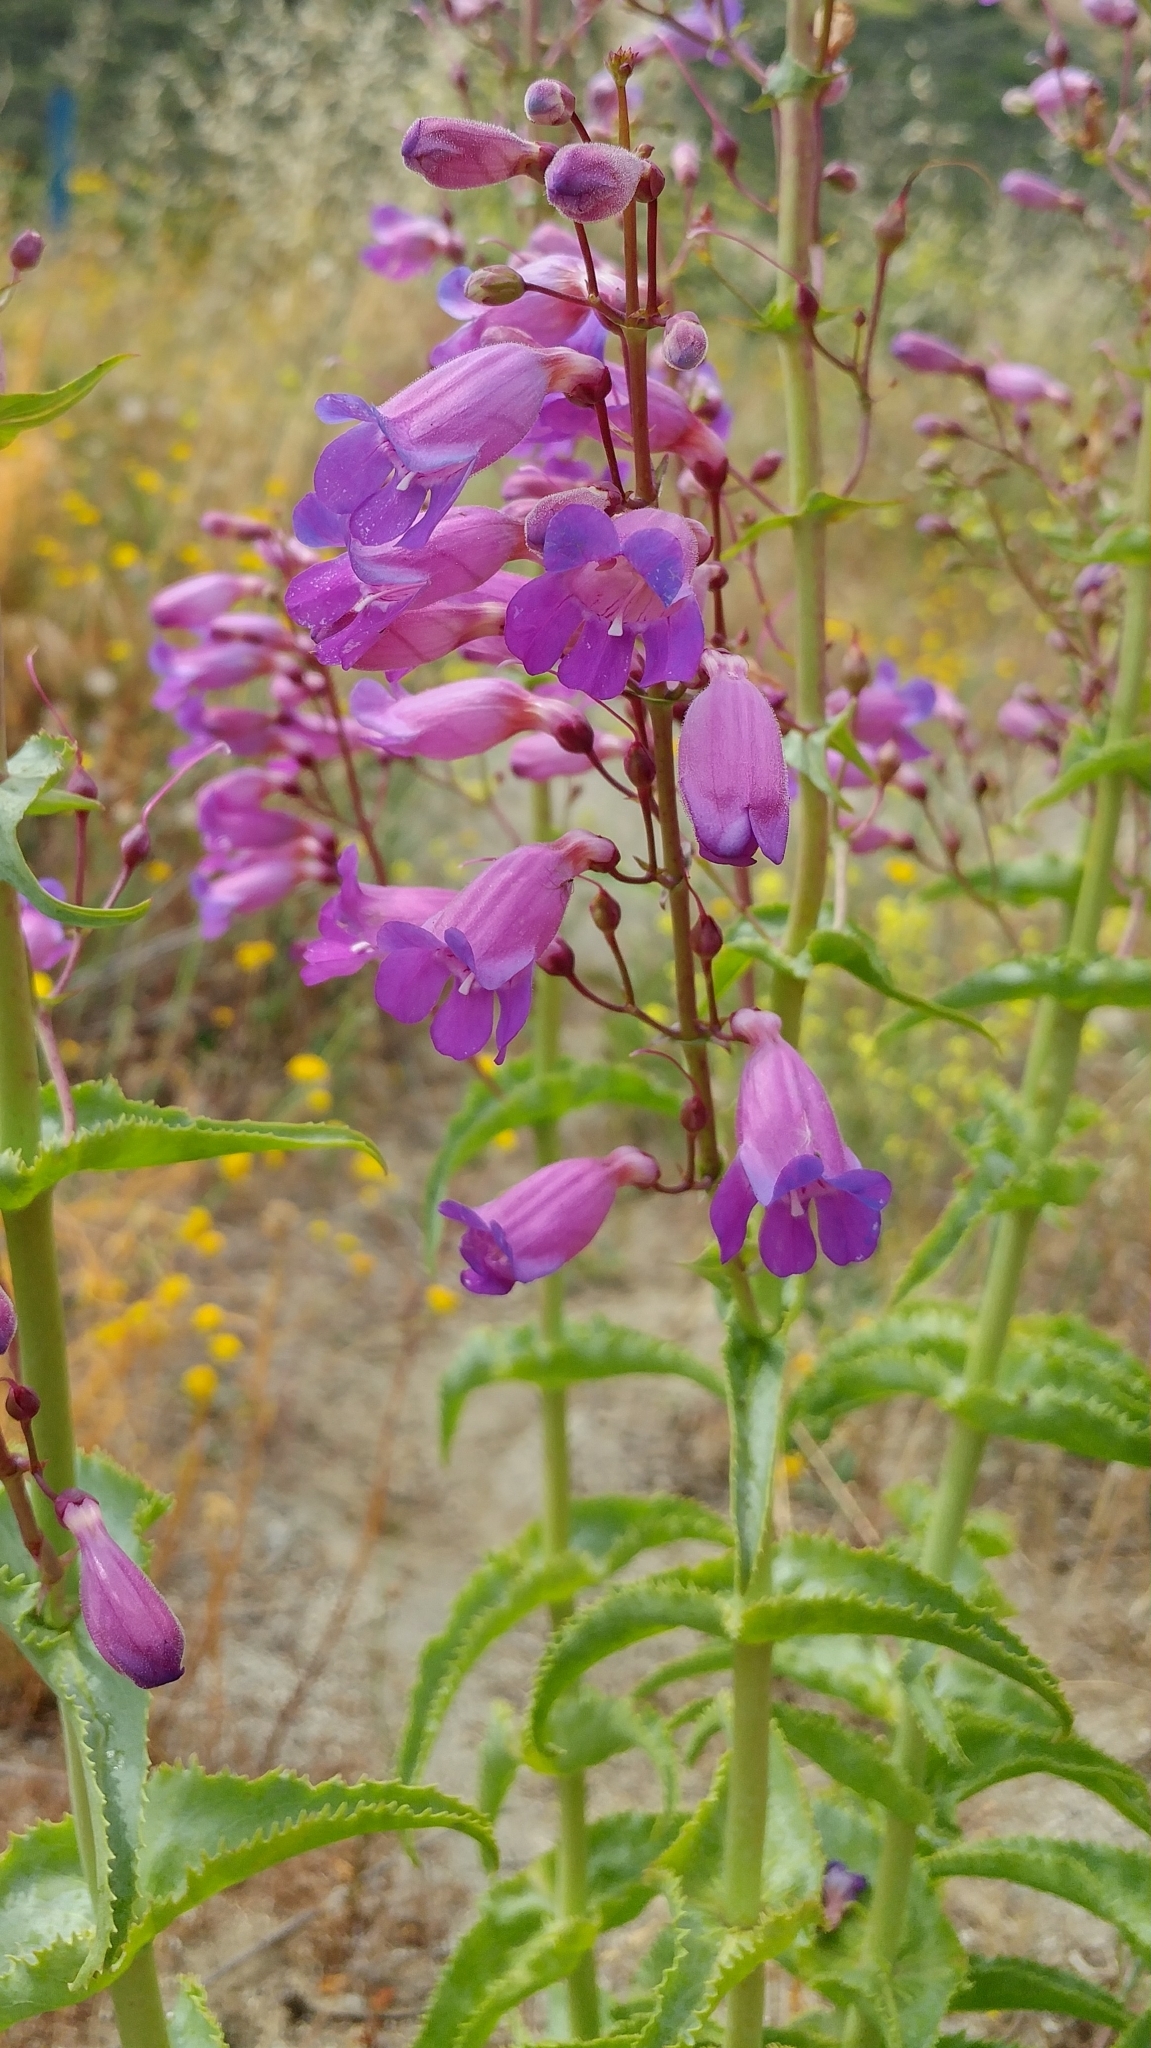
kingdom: Plantae
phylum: Tracheophyta
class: Magnoliopsida
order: Lamiales
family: Plantaginaceae
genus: Penstemon
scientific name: Penstemon spectabilis
